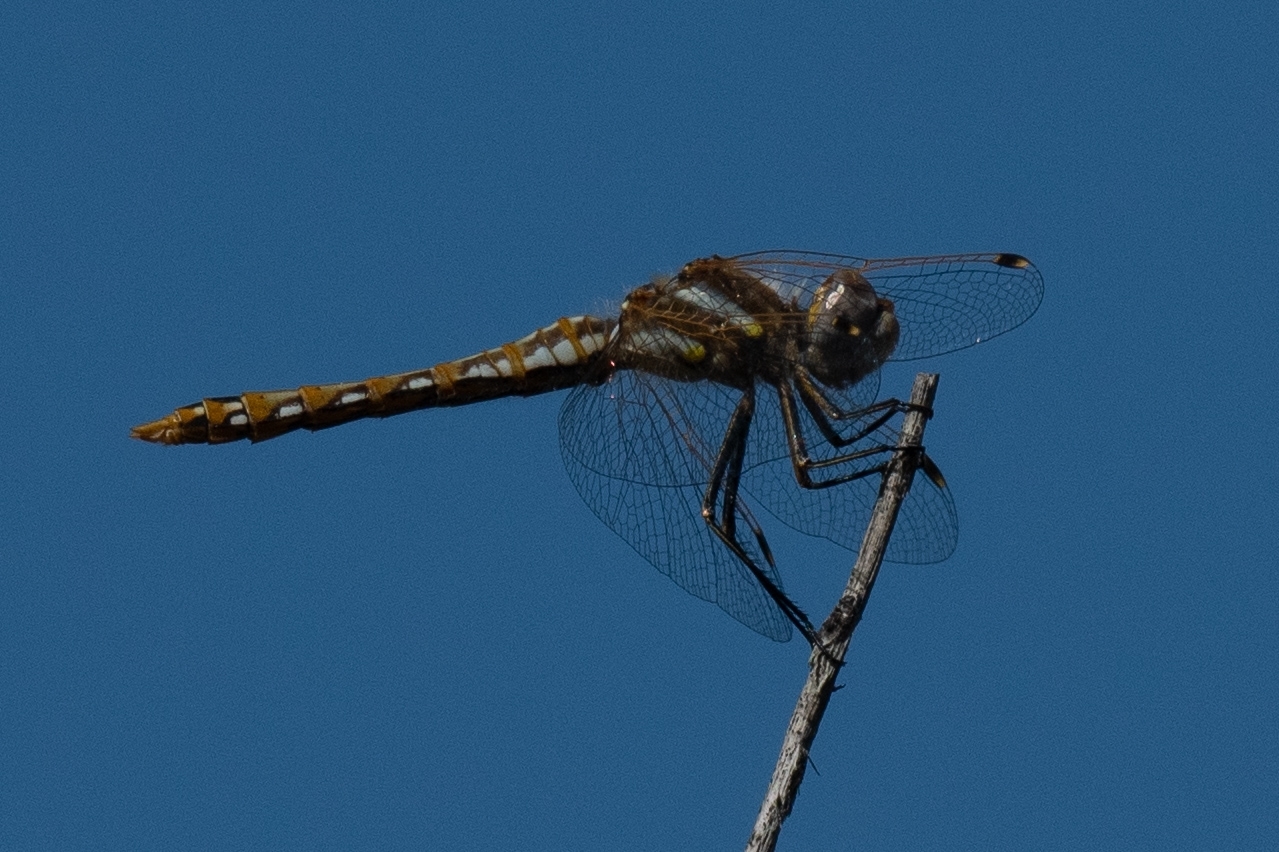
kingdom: Animalia
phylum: Arthropoda
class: Insecta
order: Odonata
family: Libellulidae
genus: Sympetrum
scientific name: Sympetrum corruptum
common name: Variegated meadowhawk
